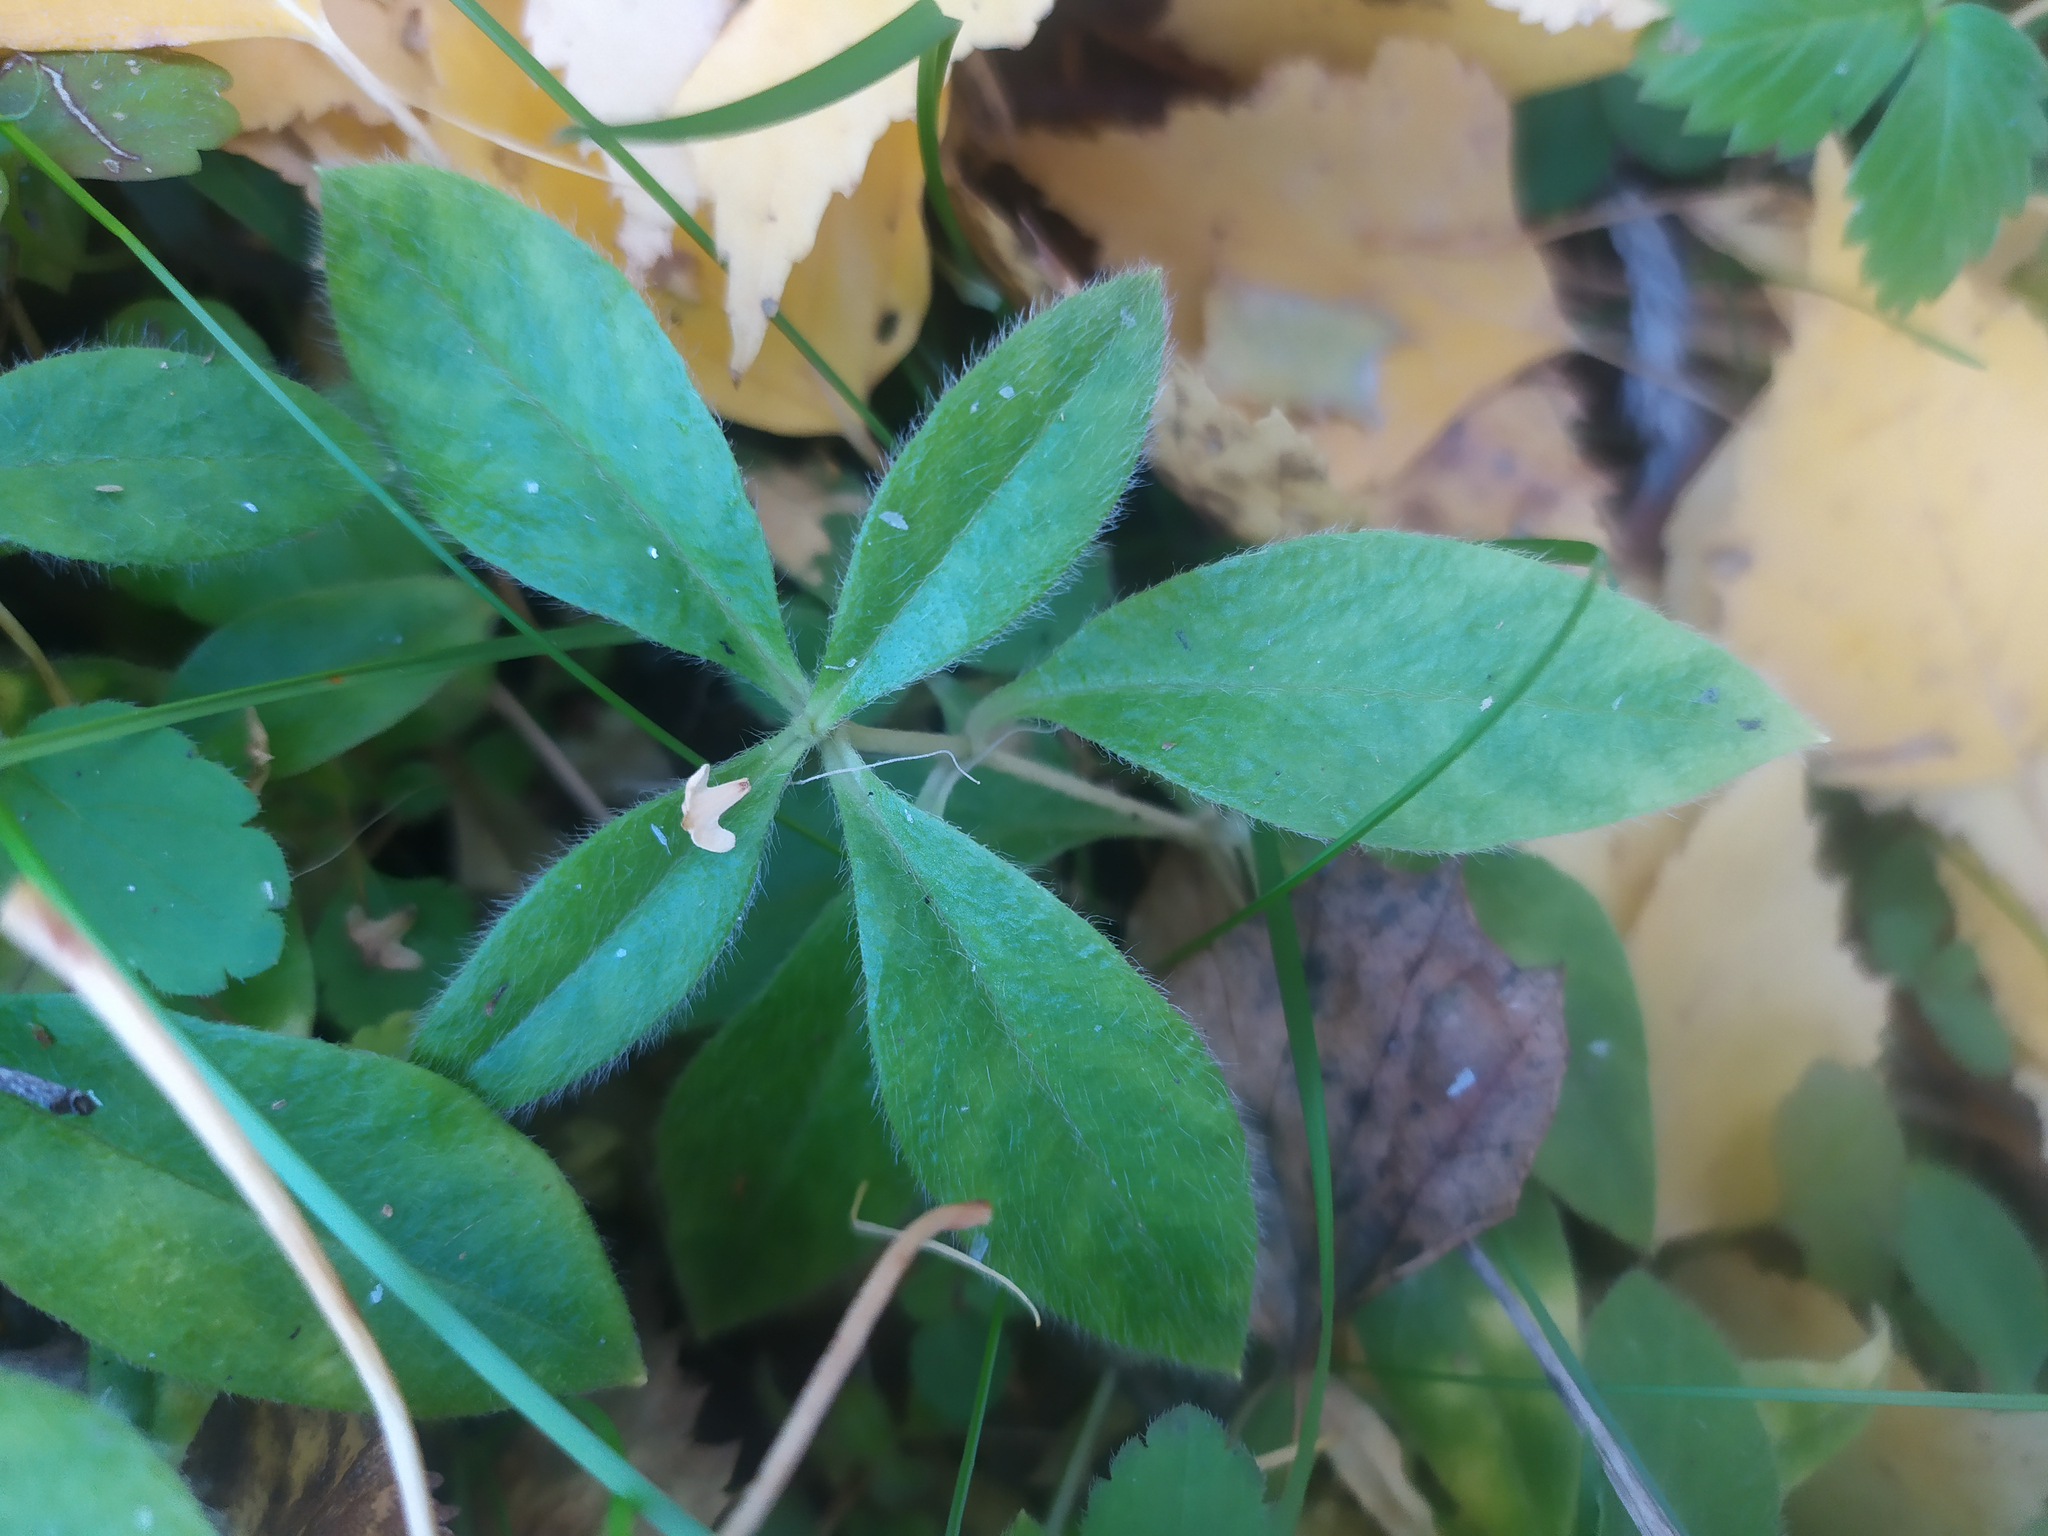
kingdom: Plantae
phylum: Tracheophyta
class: Magnoliopsida
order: Caryophyllales
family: Caryophyllaceae
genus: Cerastium
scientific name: Cerastium pauciflorum
